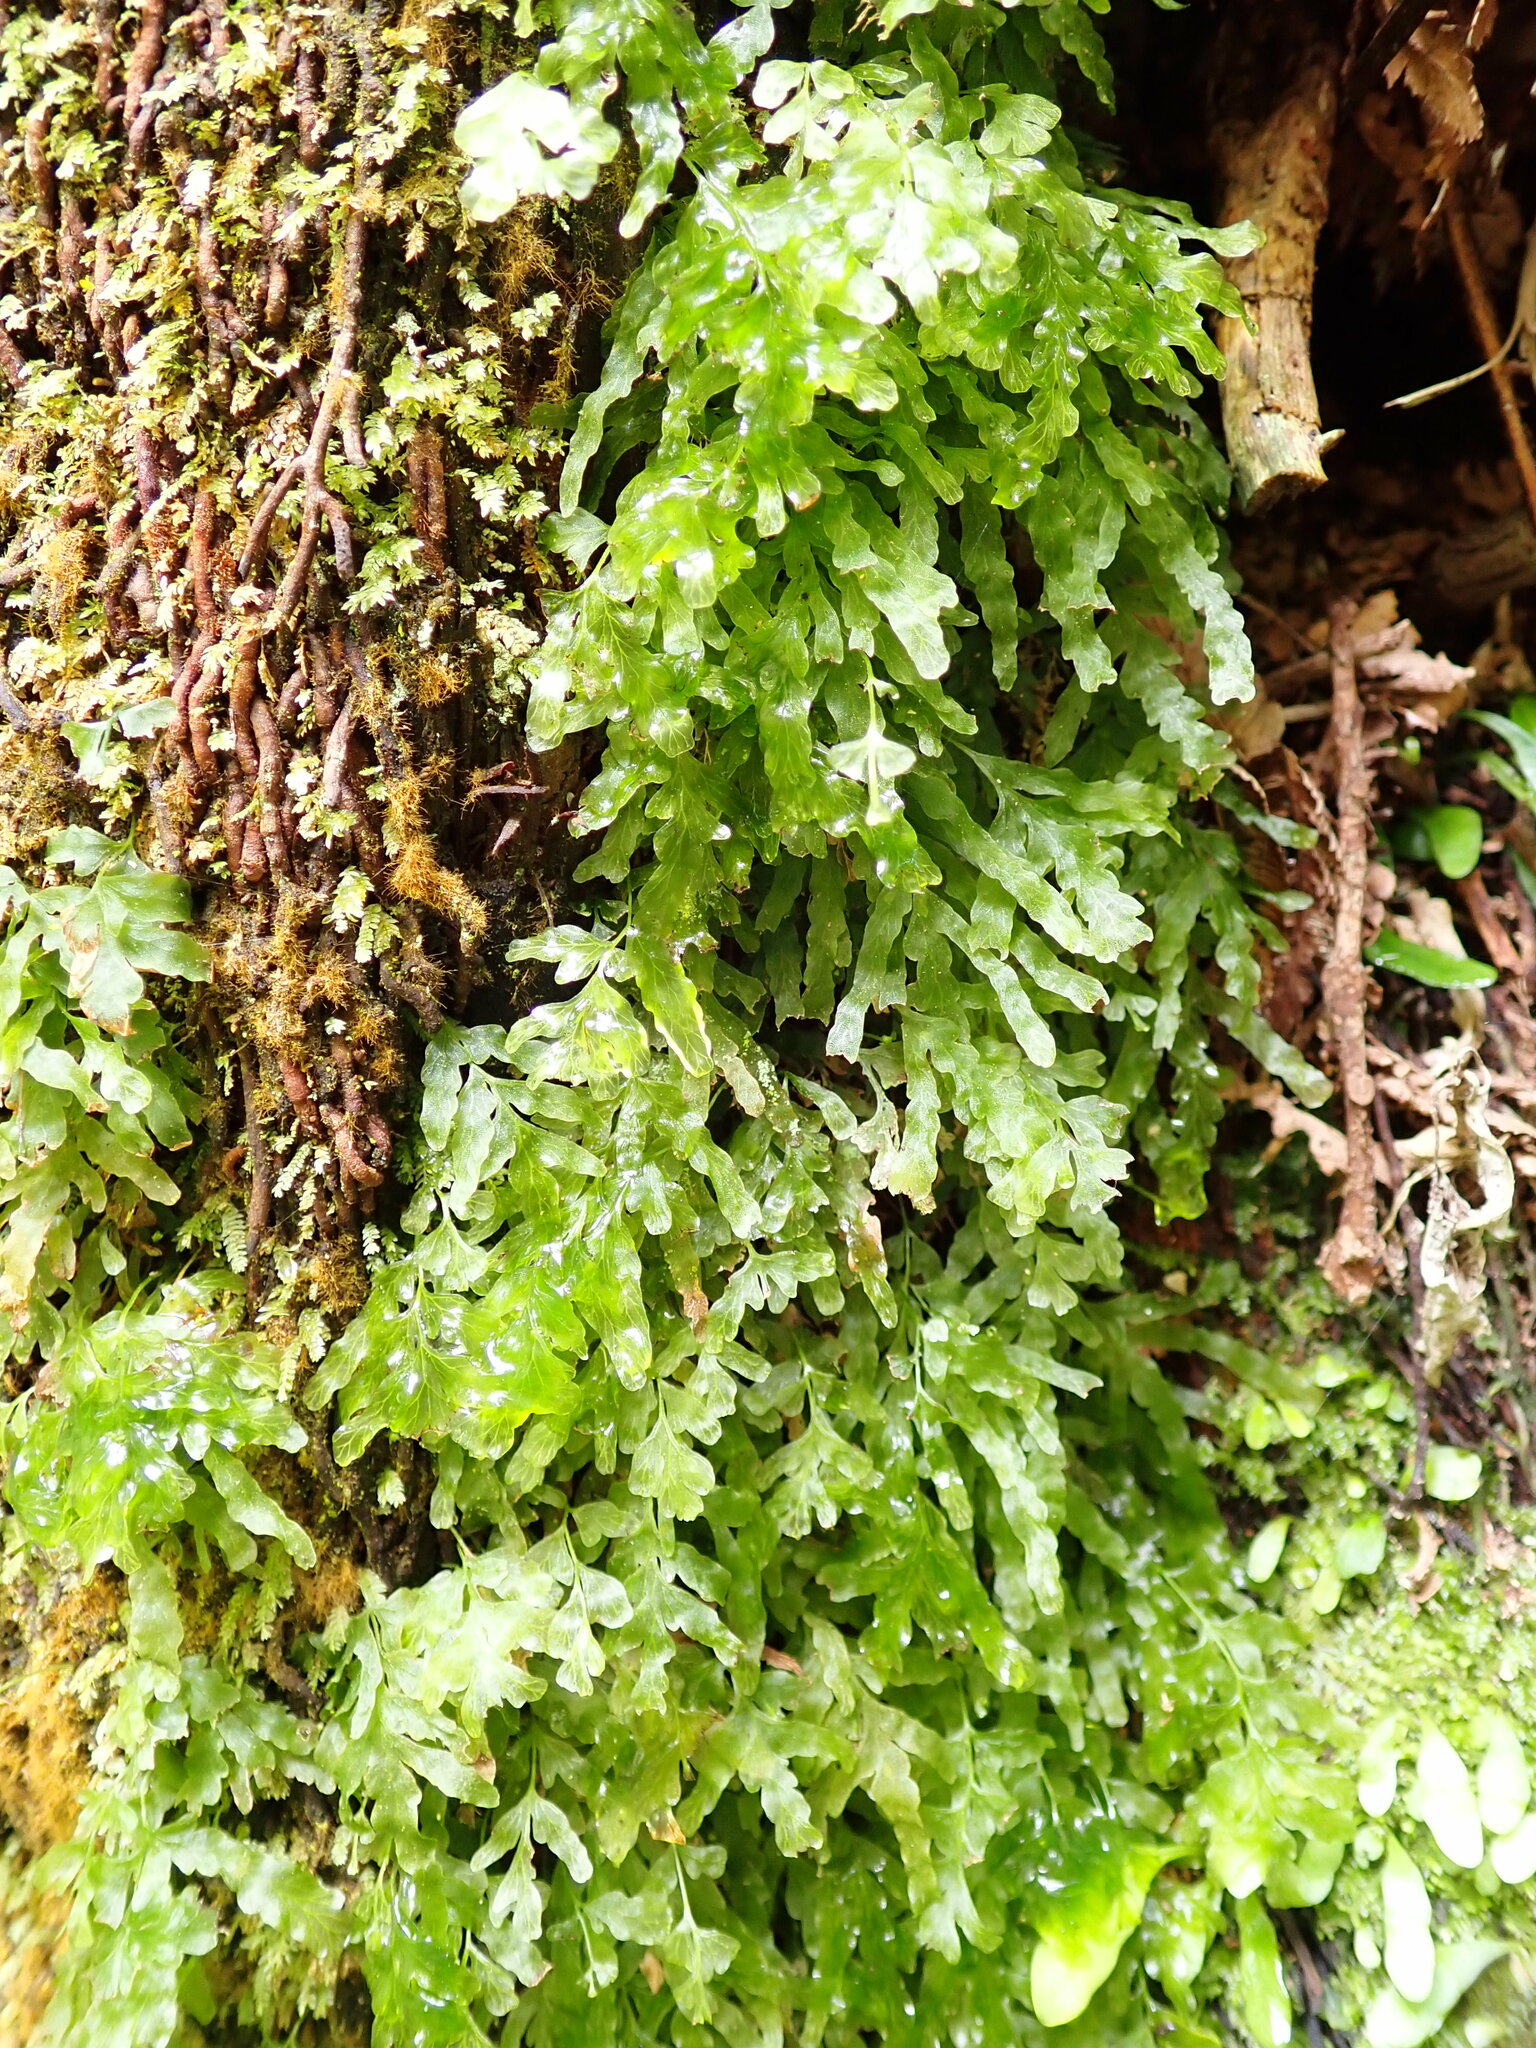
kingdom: Plantae
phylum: Tracheophyta
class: Polypodiopsida
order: Hymenophyllales
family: Hymenophyllaceae
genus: Polyphlebium
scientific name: Polyphlebium venosum
